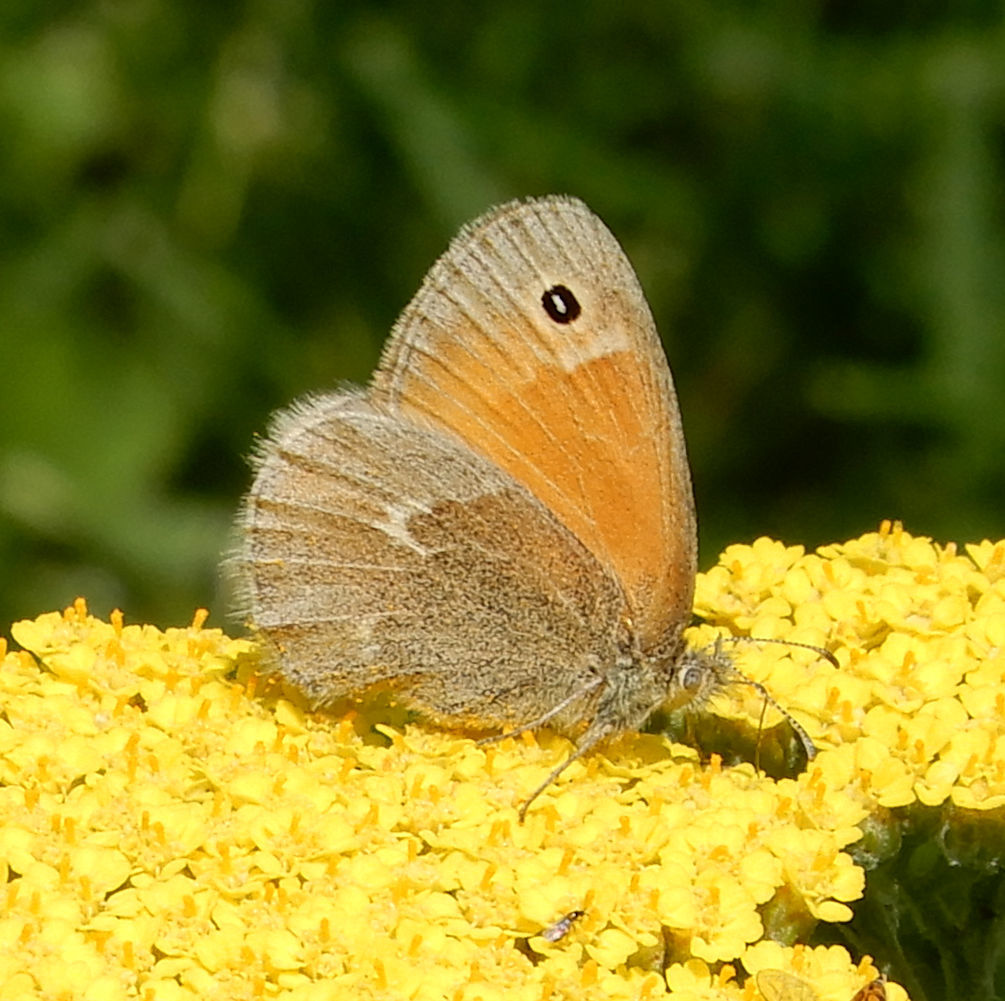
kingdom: Animalia
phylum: Arthropoda
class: Insecta
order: Lepidoptera
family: Nymphalidae
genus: Coenonympha
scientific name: Coenonympha california
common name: Common ringlet
